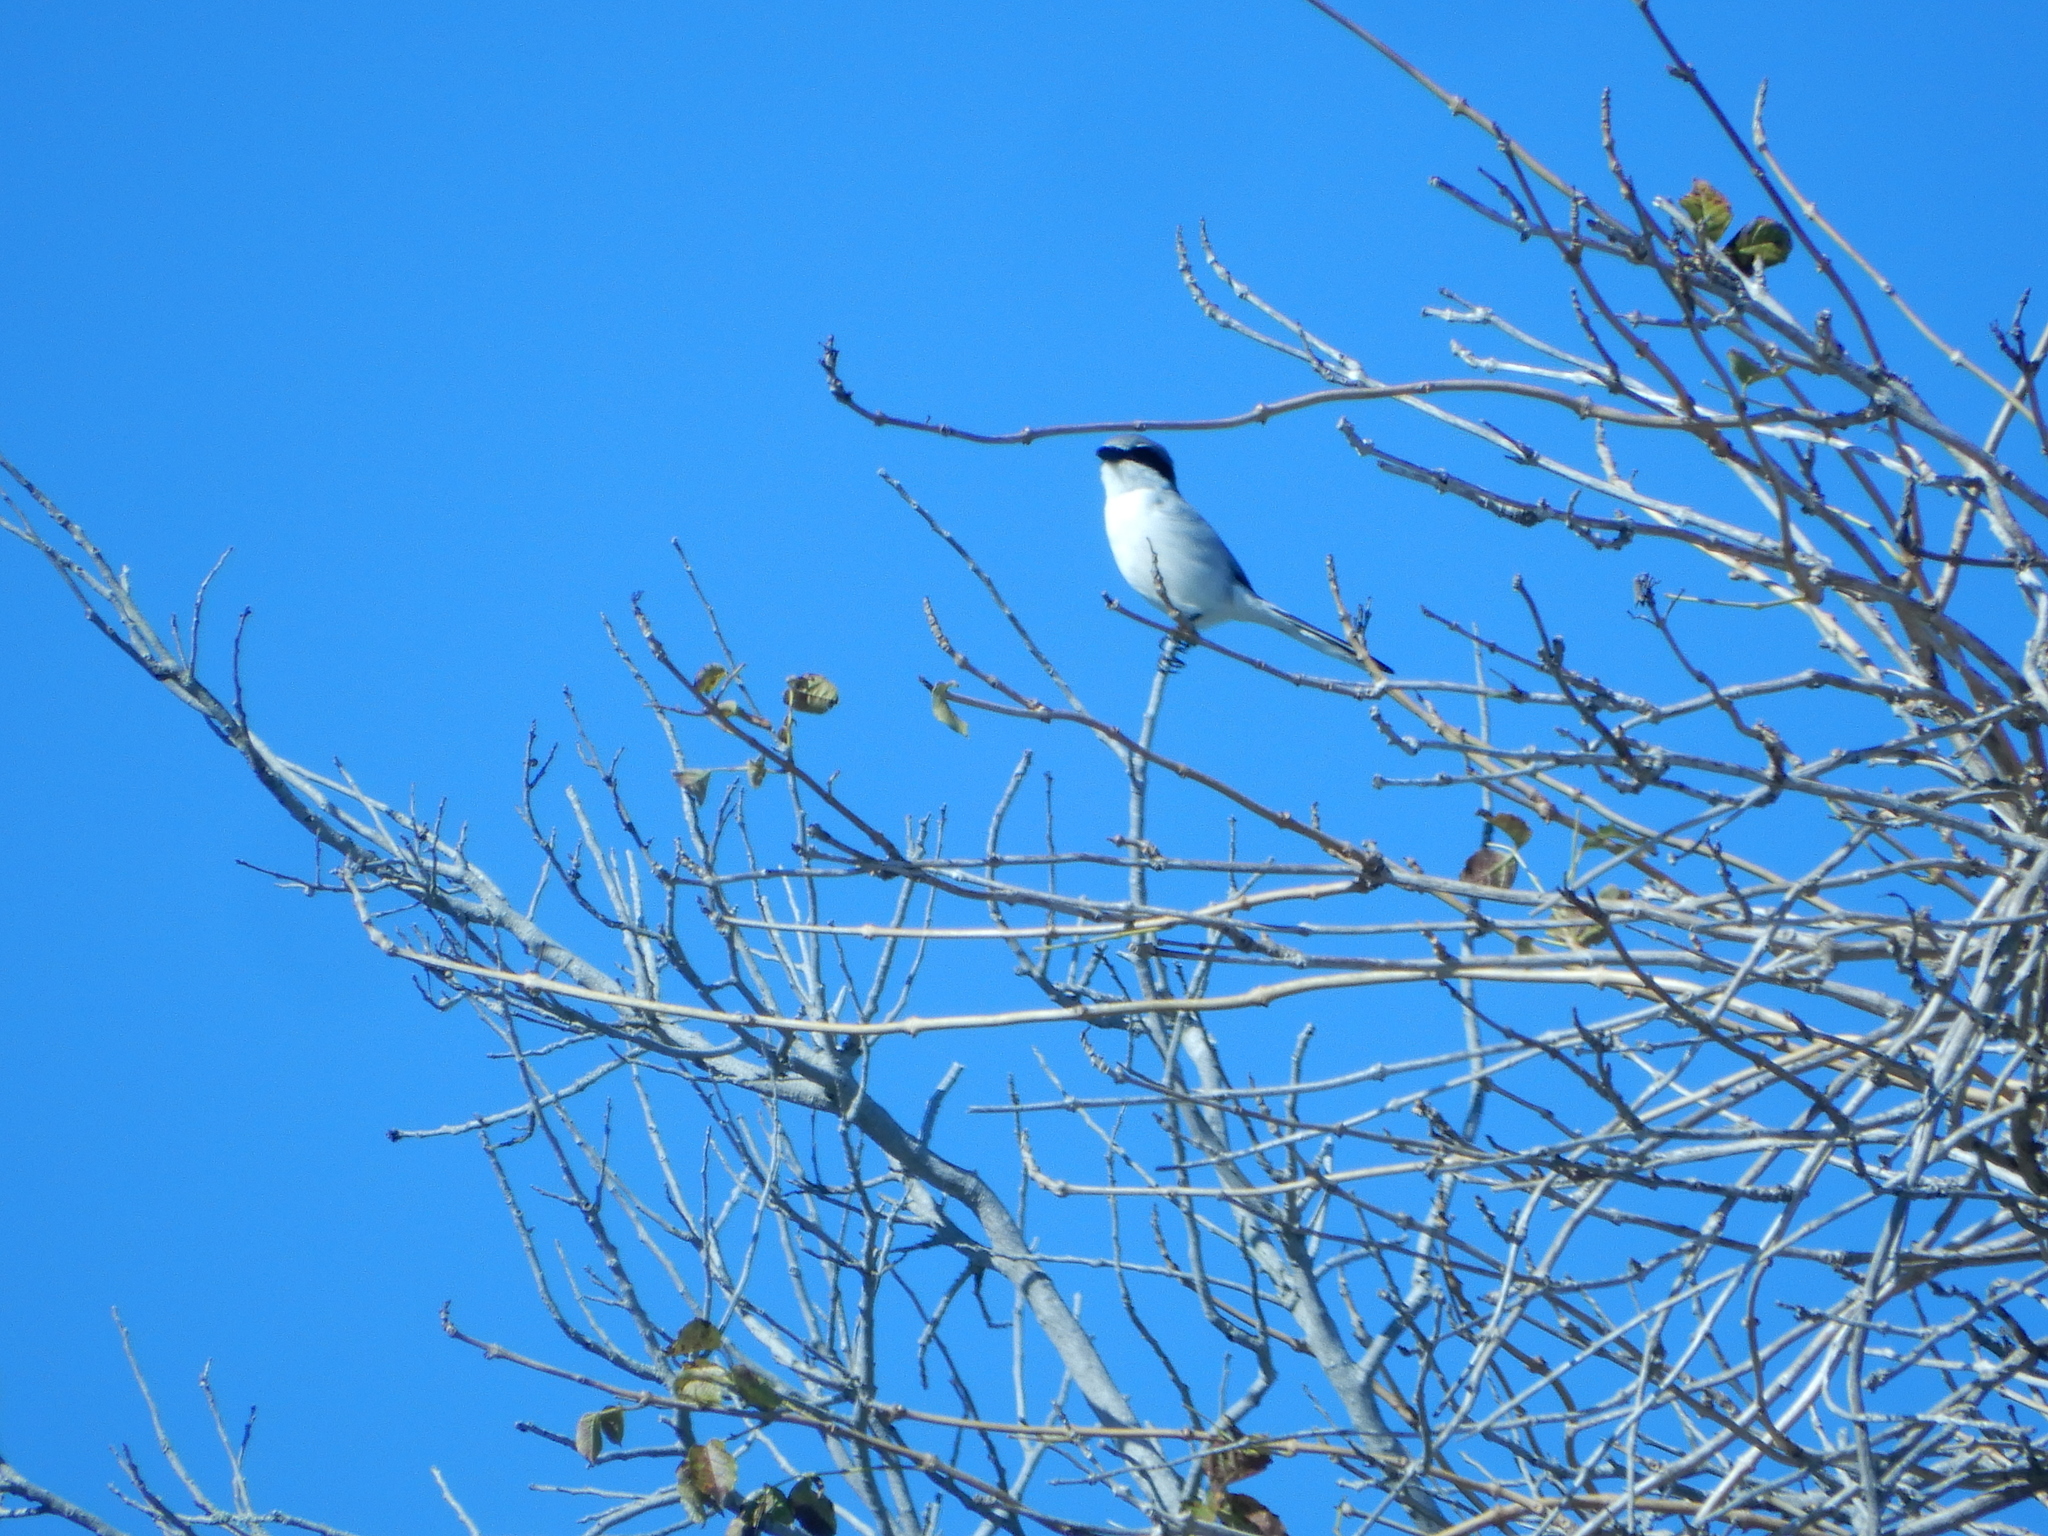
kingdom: Animalia
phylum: Chordata
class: Aves
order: Passeriformes
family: Laniidae
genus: Lanius
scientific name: Lanius ludovicianus
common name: Loggerhead shrike
